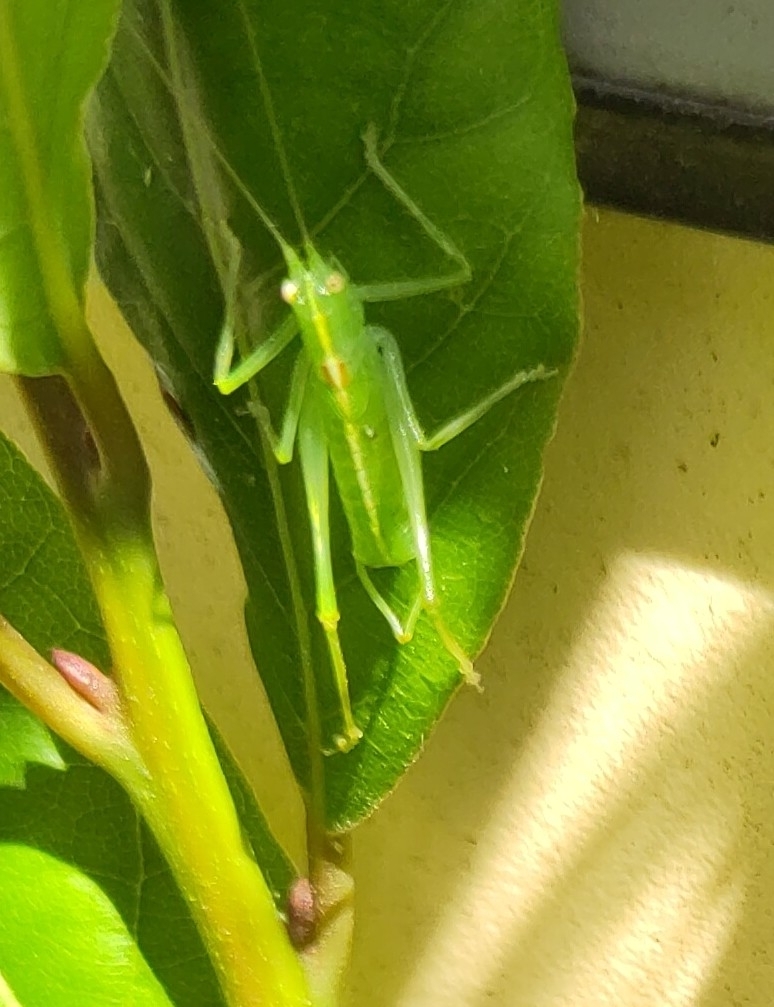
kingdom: Animalia
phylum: Arthropoda
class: Insecta
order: Orthoptera
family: Tettigoniidae
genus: Meconema
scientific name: Meconema meridionale
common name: Southern oak bush-cricket
